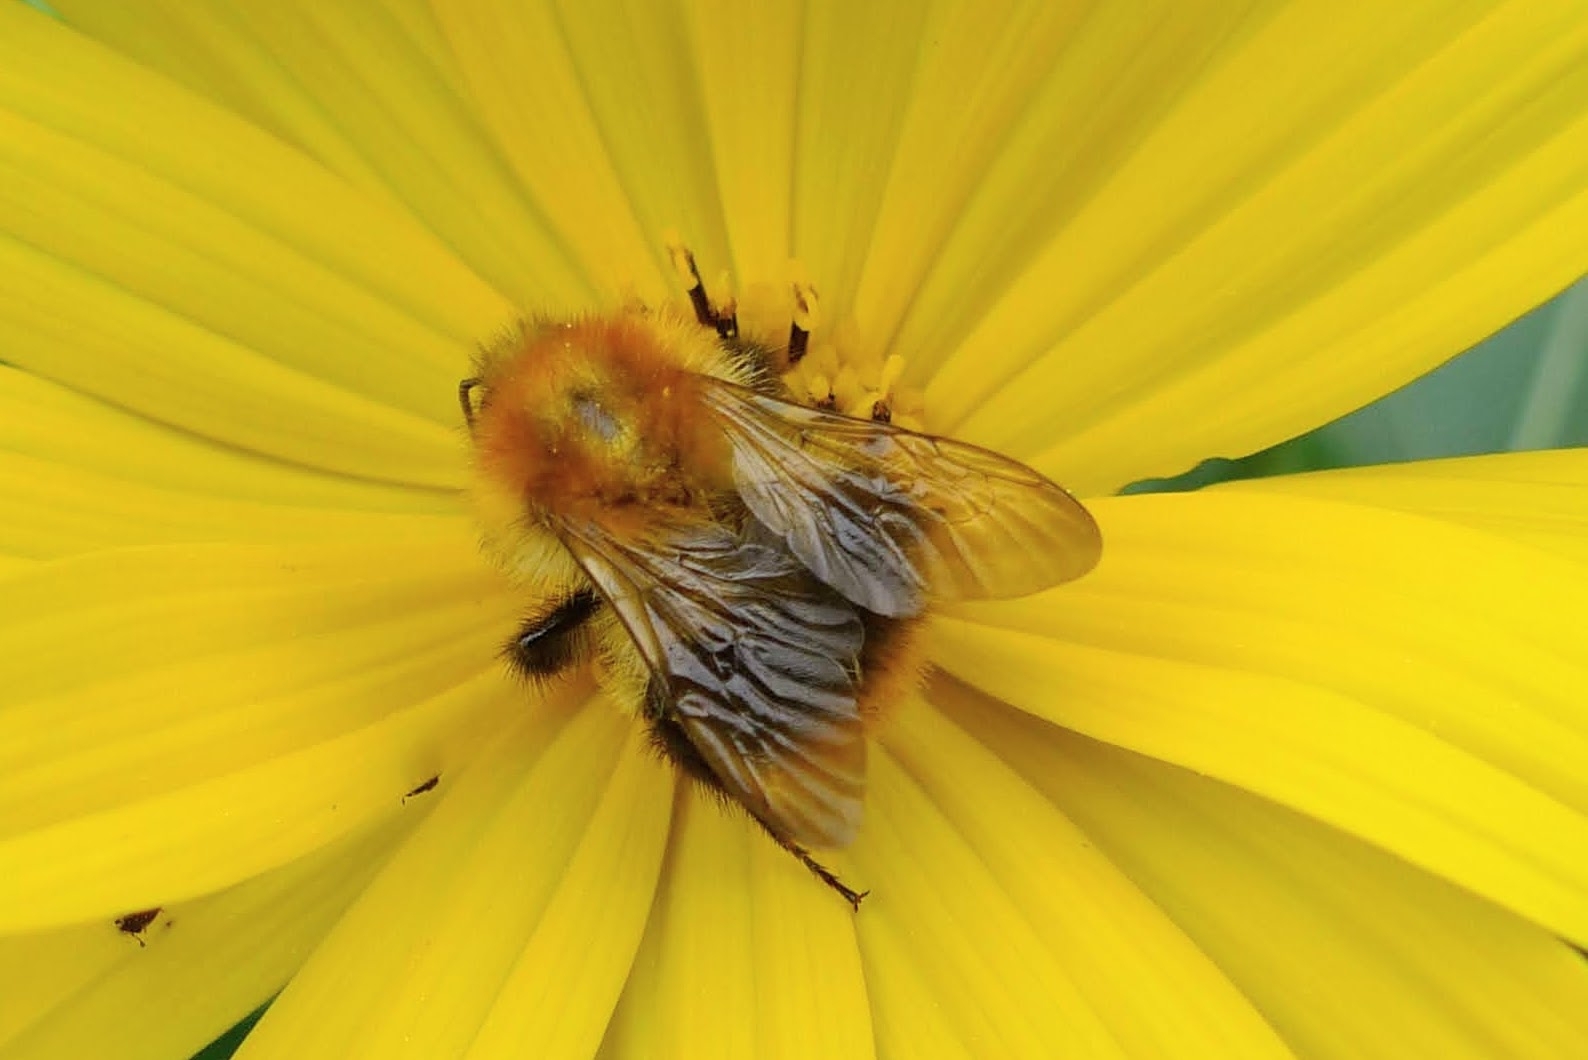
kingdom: Animalia
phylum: Arthropoda
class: Insecta
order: Hymenoptera
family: Apidae
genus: Bombus
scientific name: Bombus pascuorum
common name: Common carder bee
